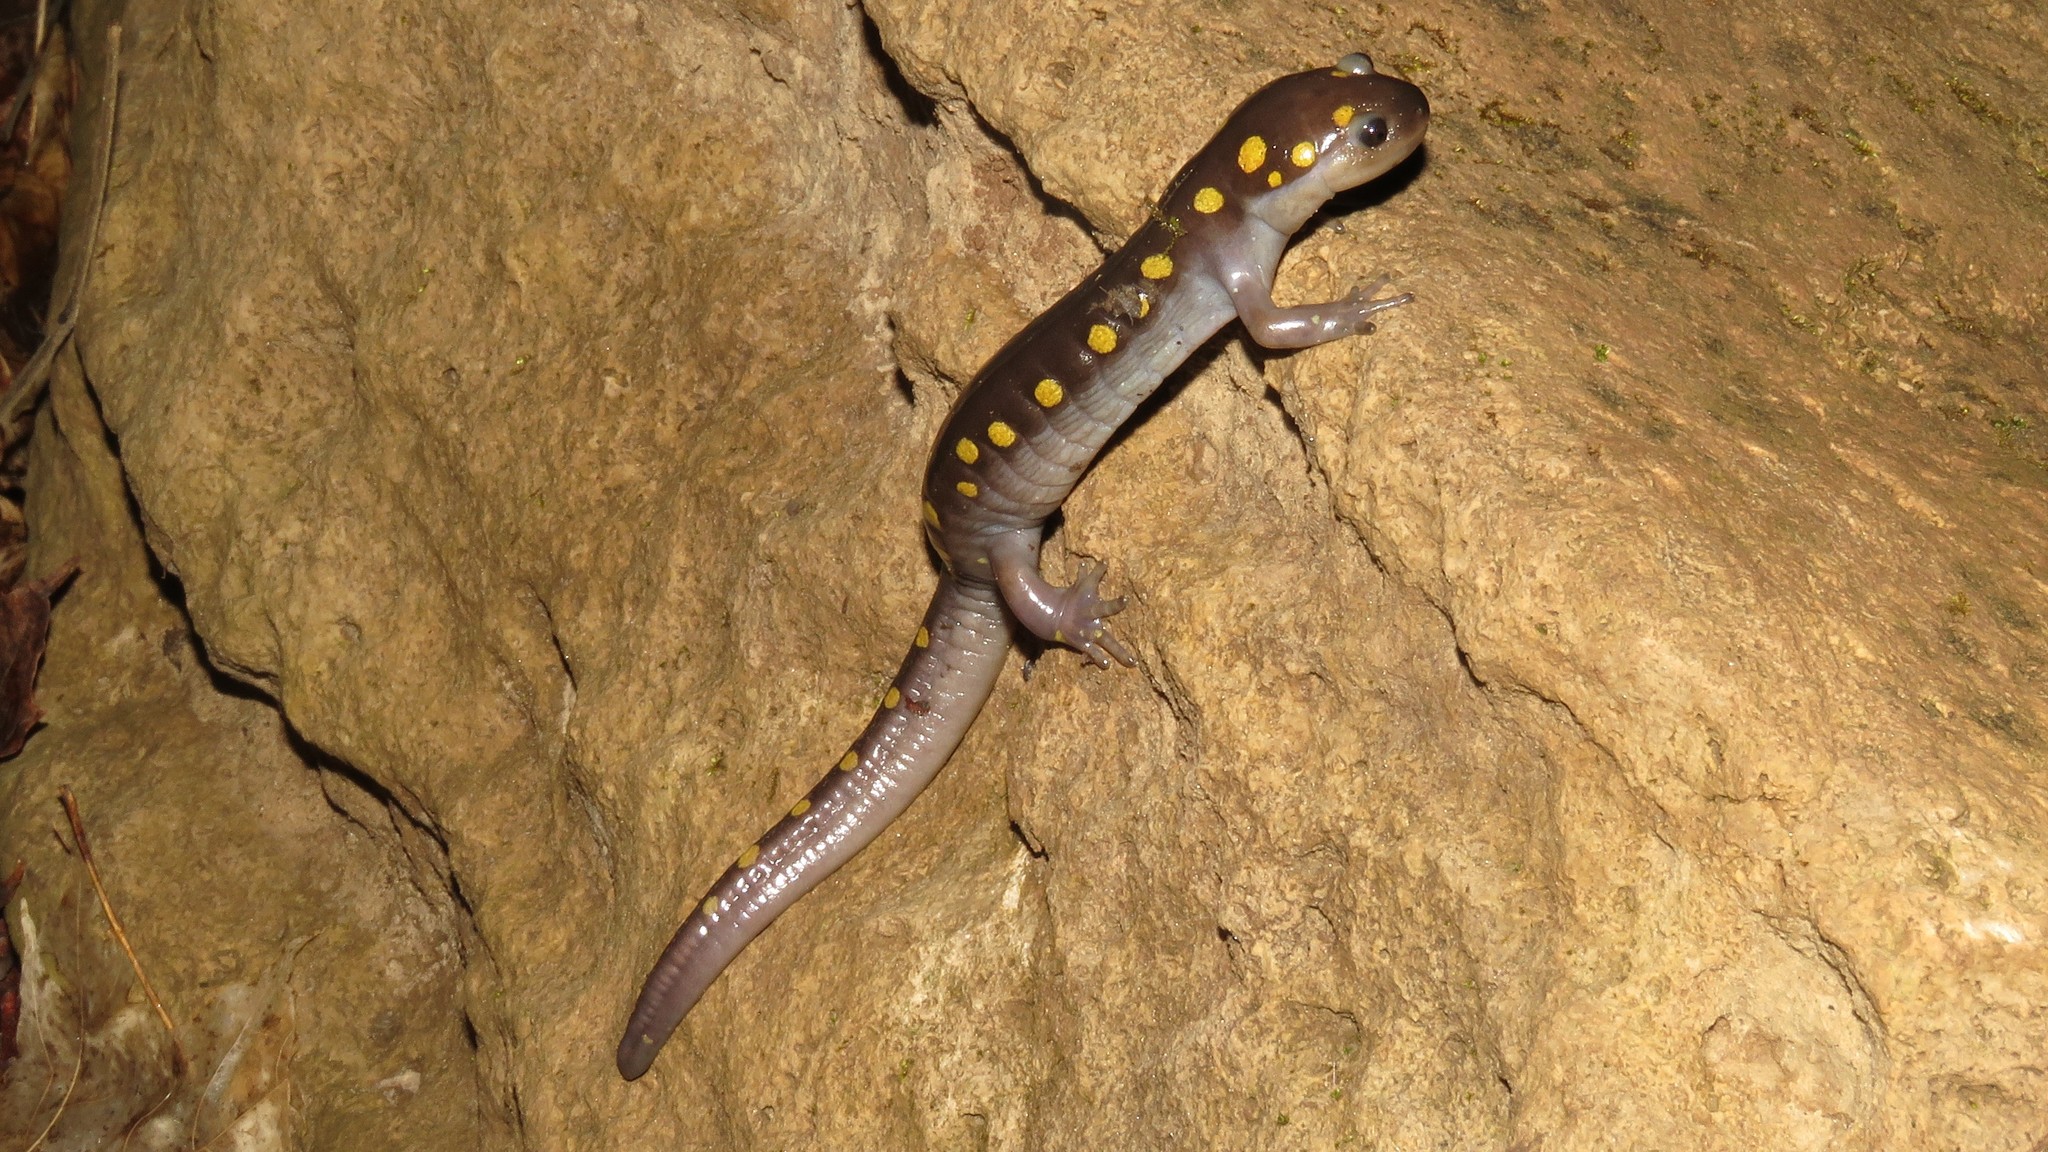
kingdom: Animalia
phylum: Chordata
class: Amphibia
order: Caudata
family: Ambystomatidae
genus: Ambystoma
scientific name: Ambystoma maculatum
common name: Spotted salamander
